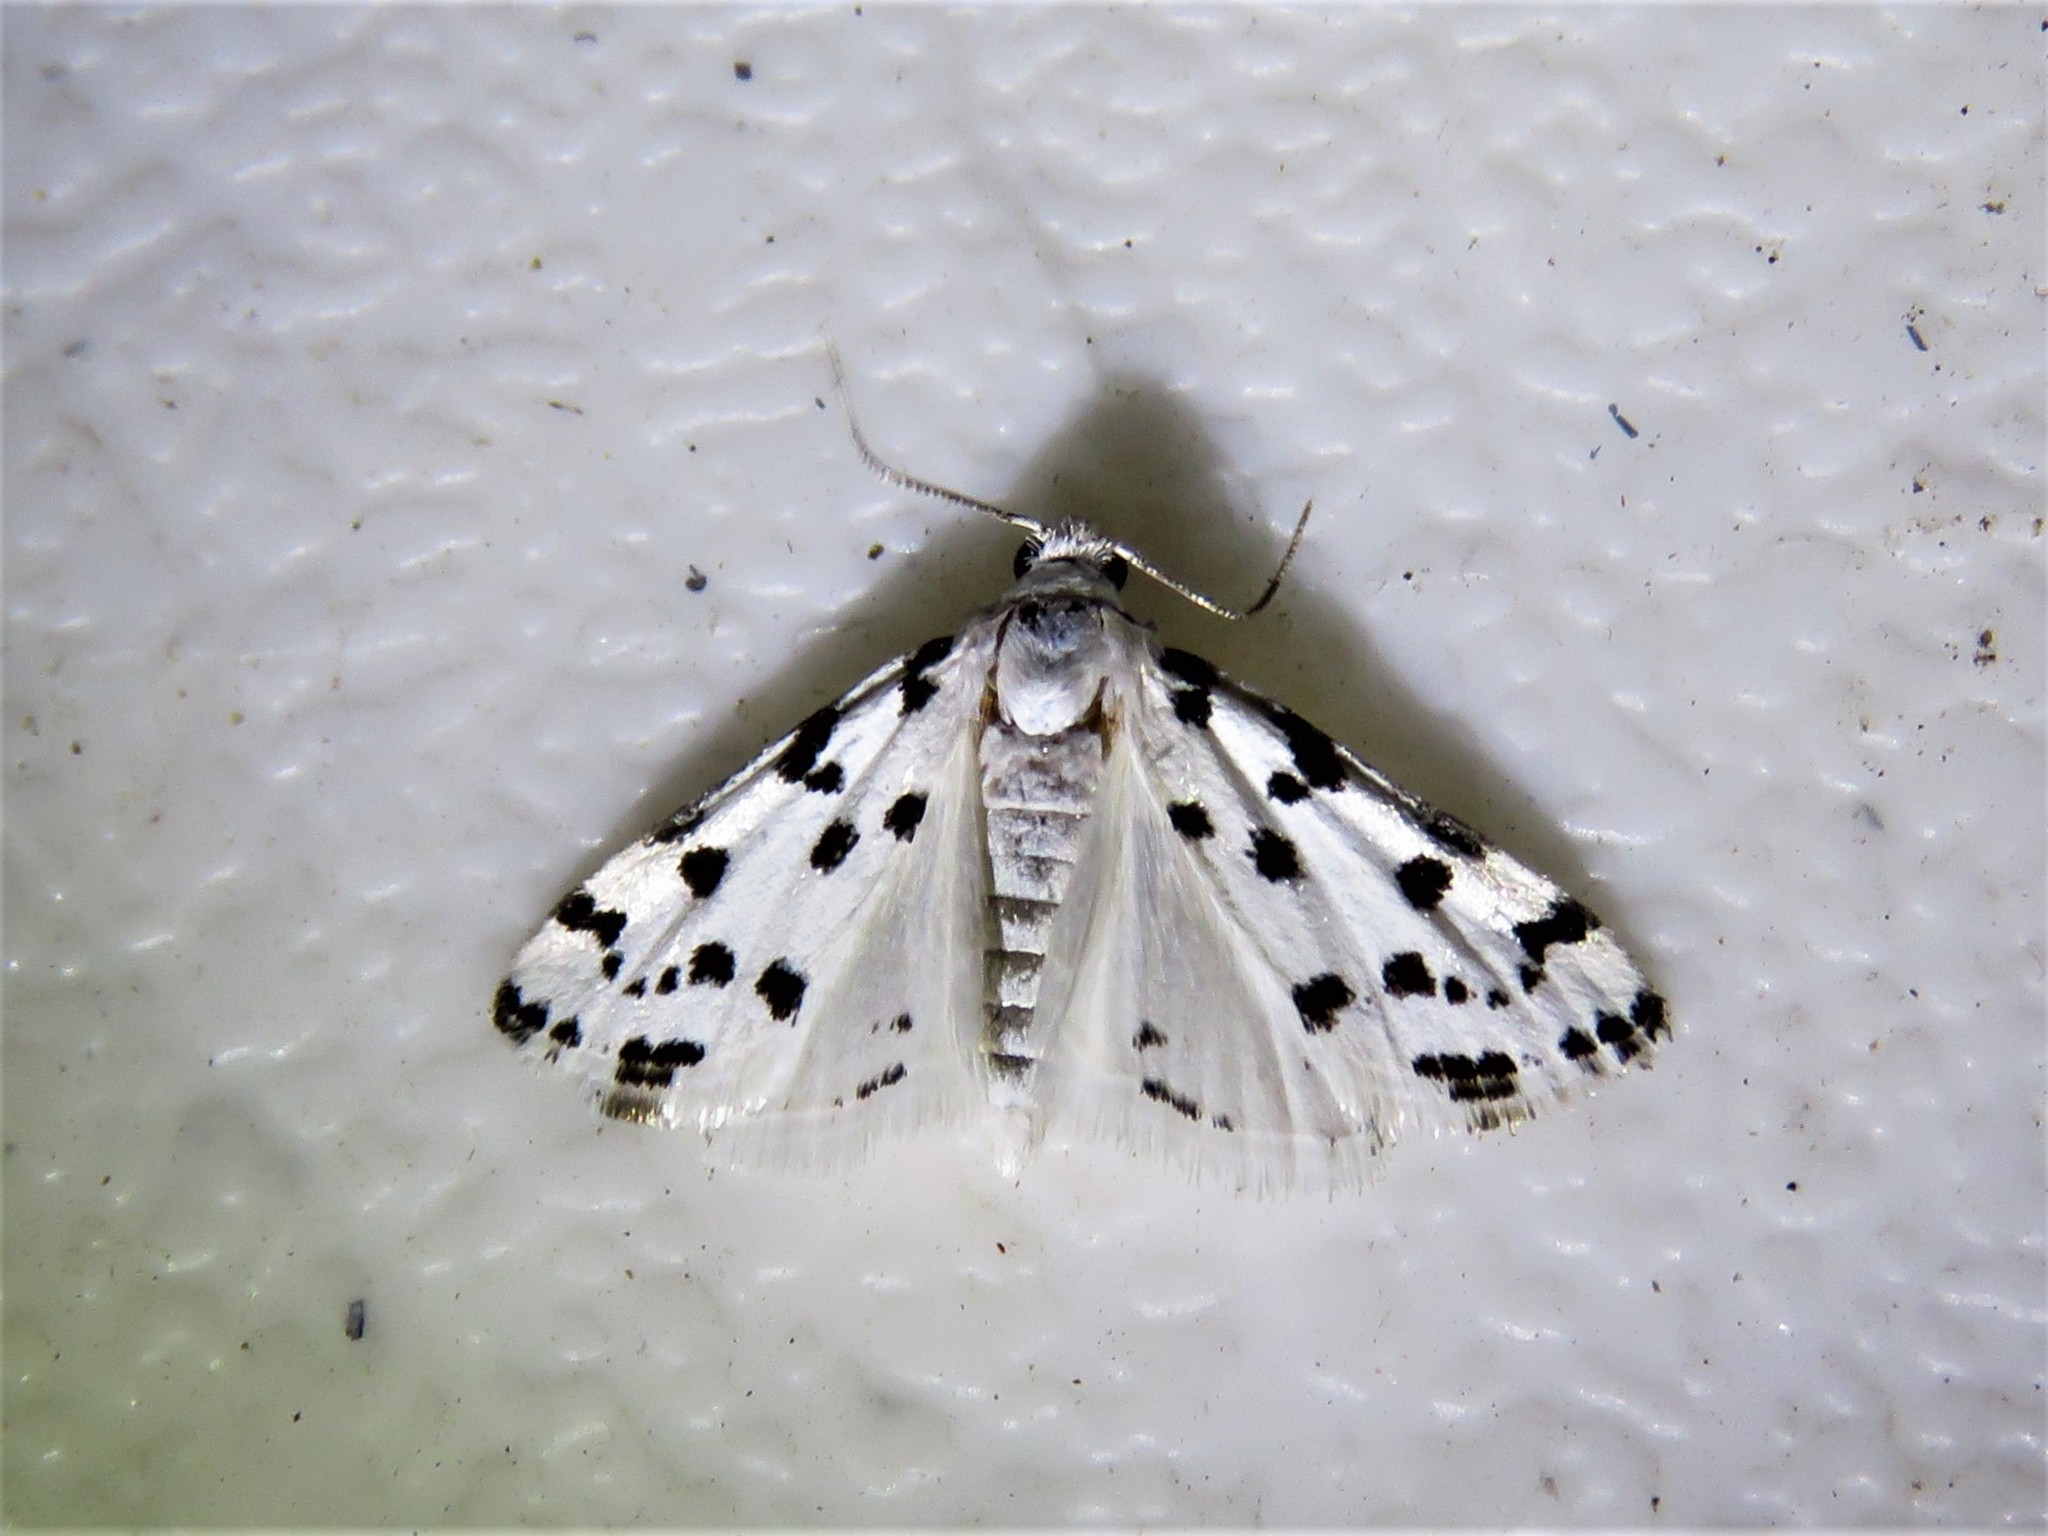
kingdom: Animalia
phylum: Arthropoda
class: Insecta
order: Lepidoptera
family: Crambidae
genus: Eustixia
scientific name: Eustixia pupula
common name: American cabbage pearl
